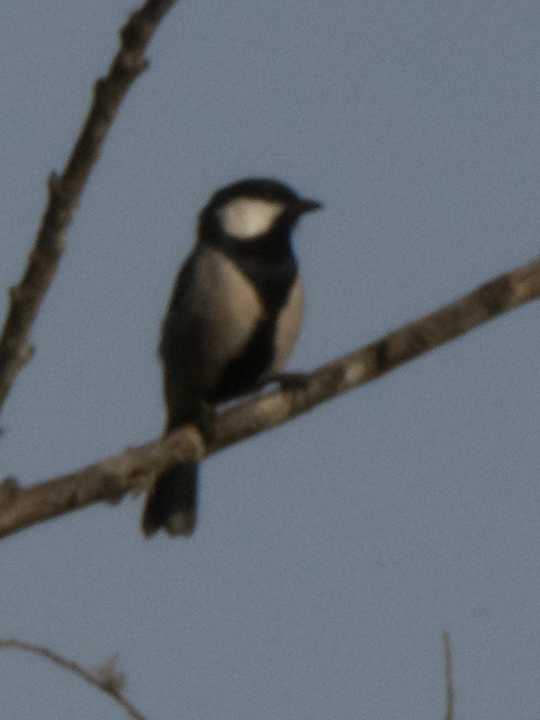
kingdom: Animalia
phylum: Chordata
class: Aves
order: Passeriformes
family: Paridae
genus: Parus
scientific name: Parus cinereus
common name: Cinereous tit
